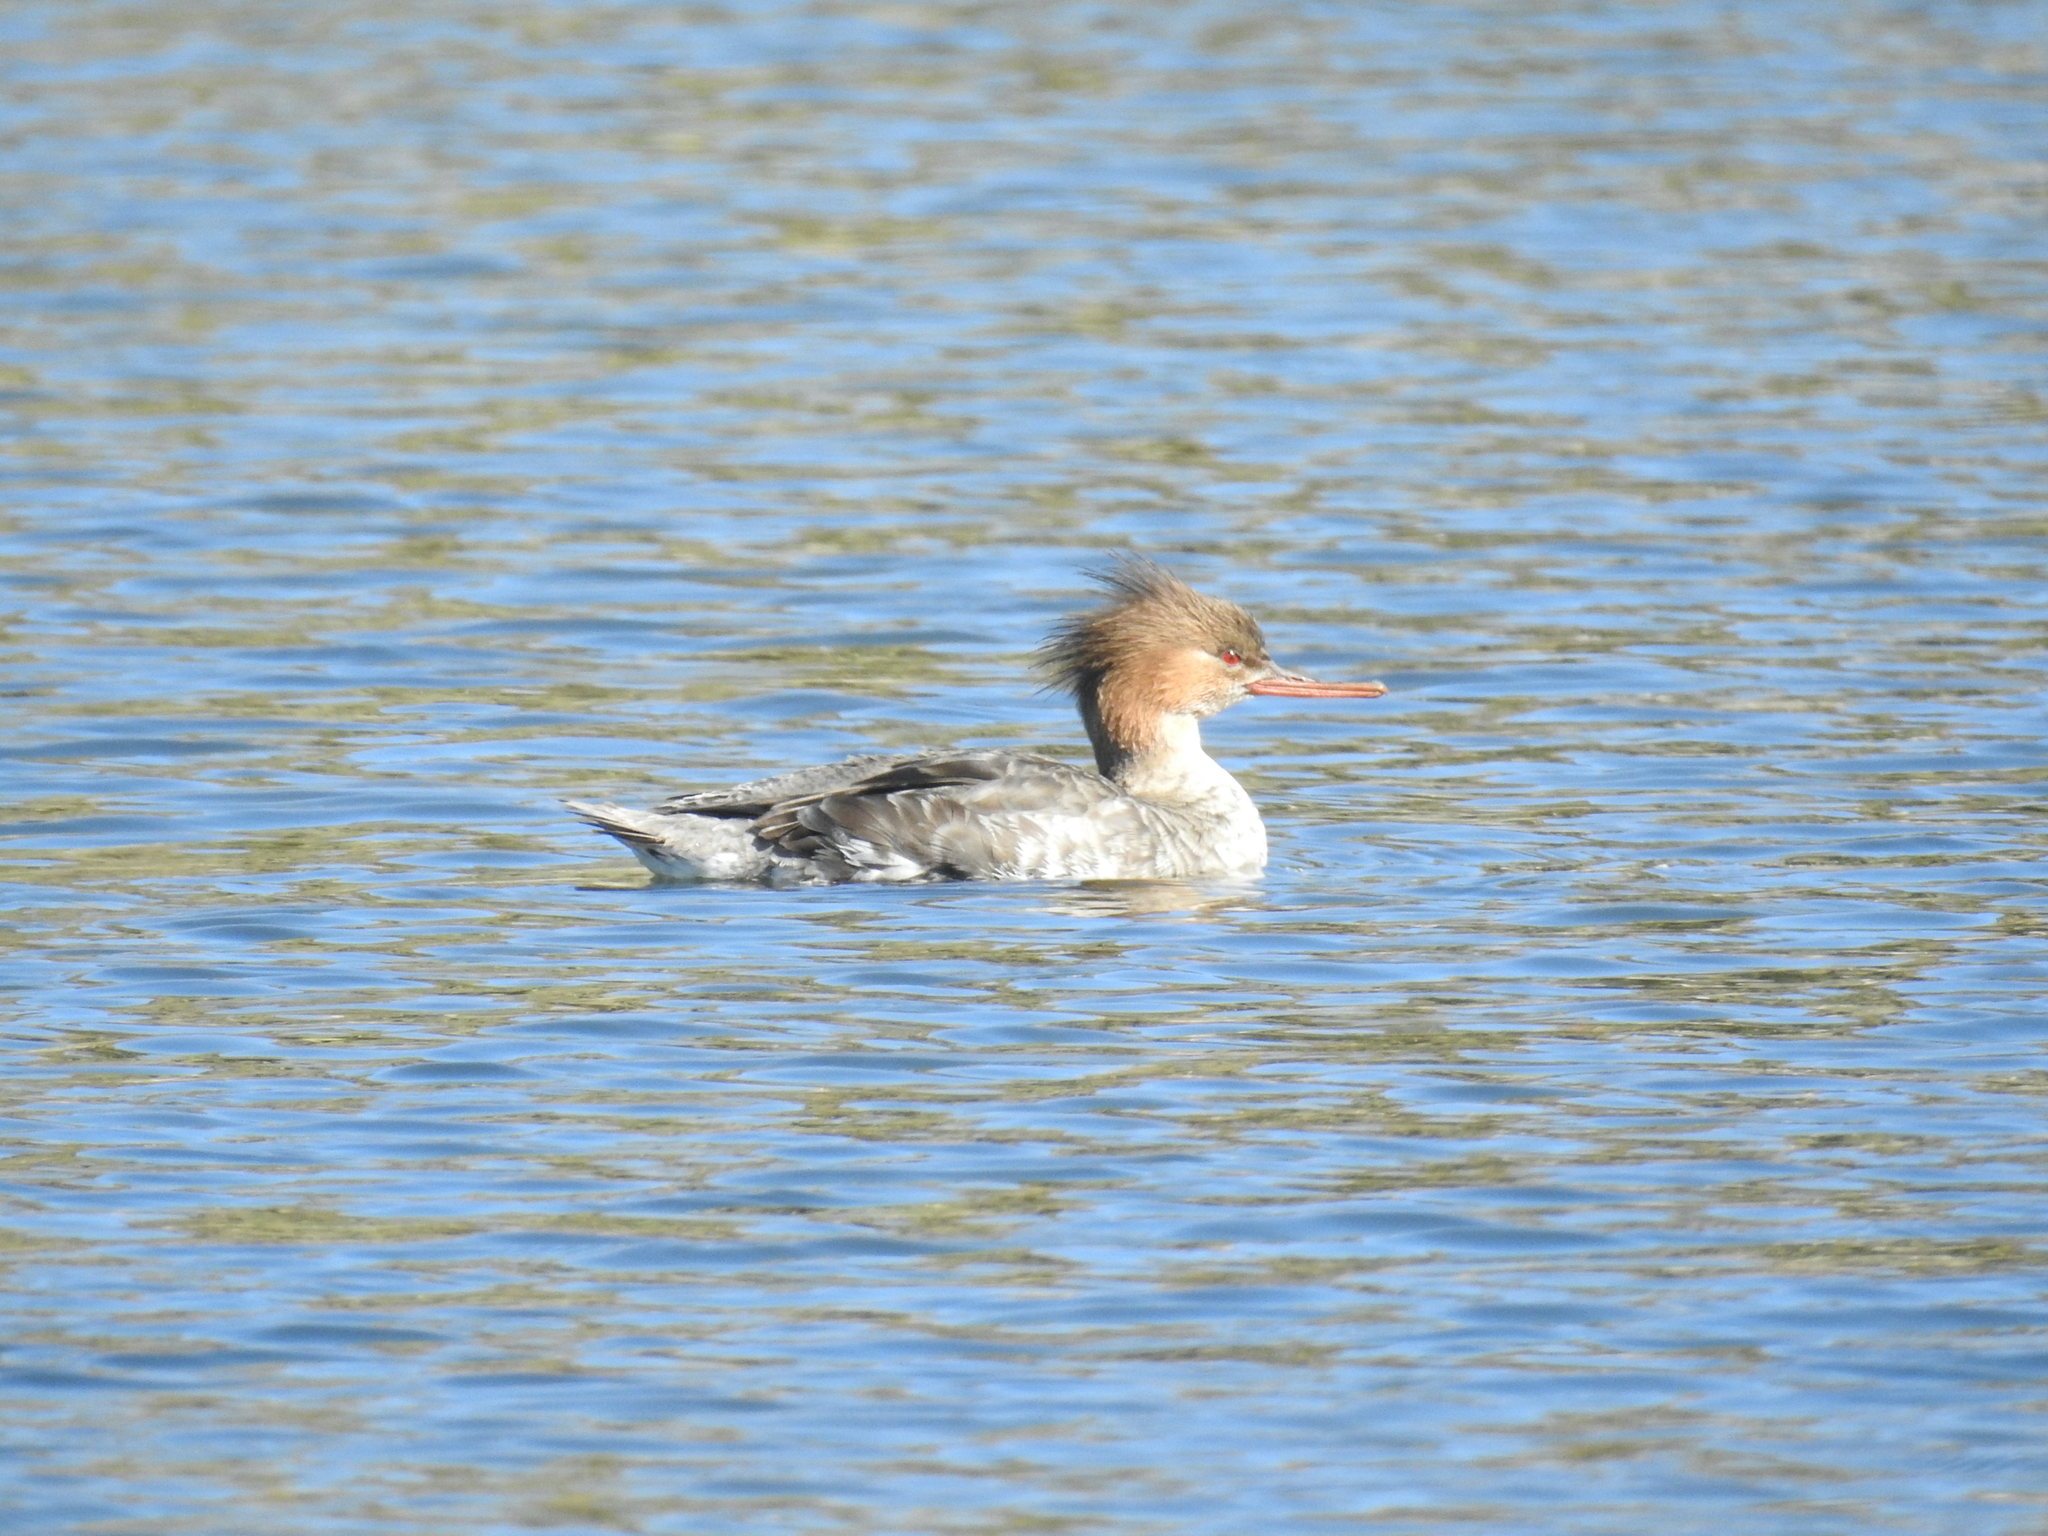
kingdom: Animalia
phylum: Chordata
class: Aves
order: Anseriformes
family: Anatidae
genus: Mergus
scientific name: Mergus serrator
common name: Red-breasted merganser
